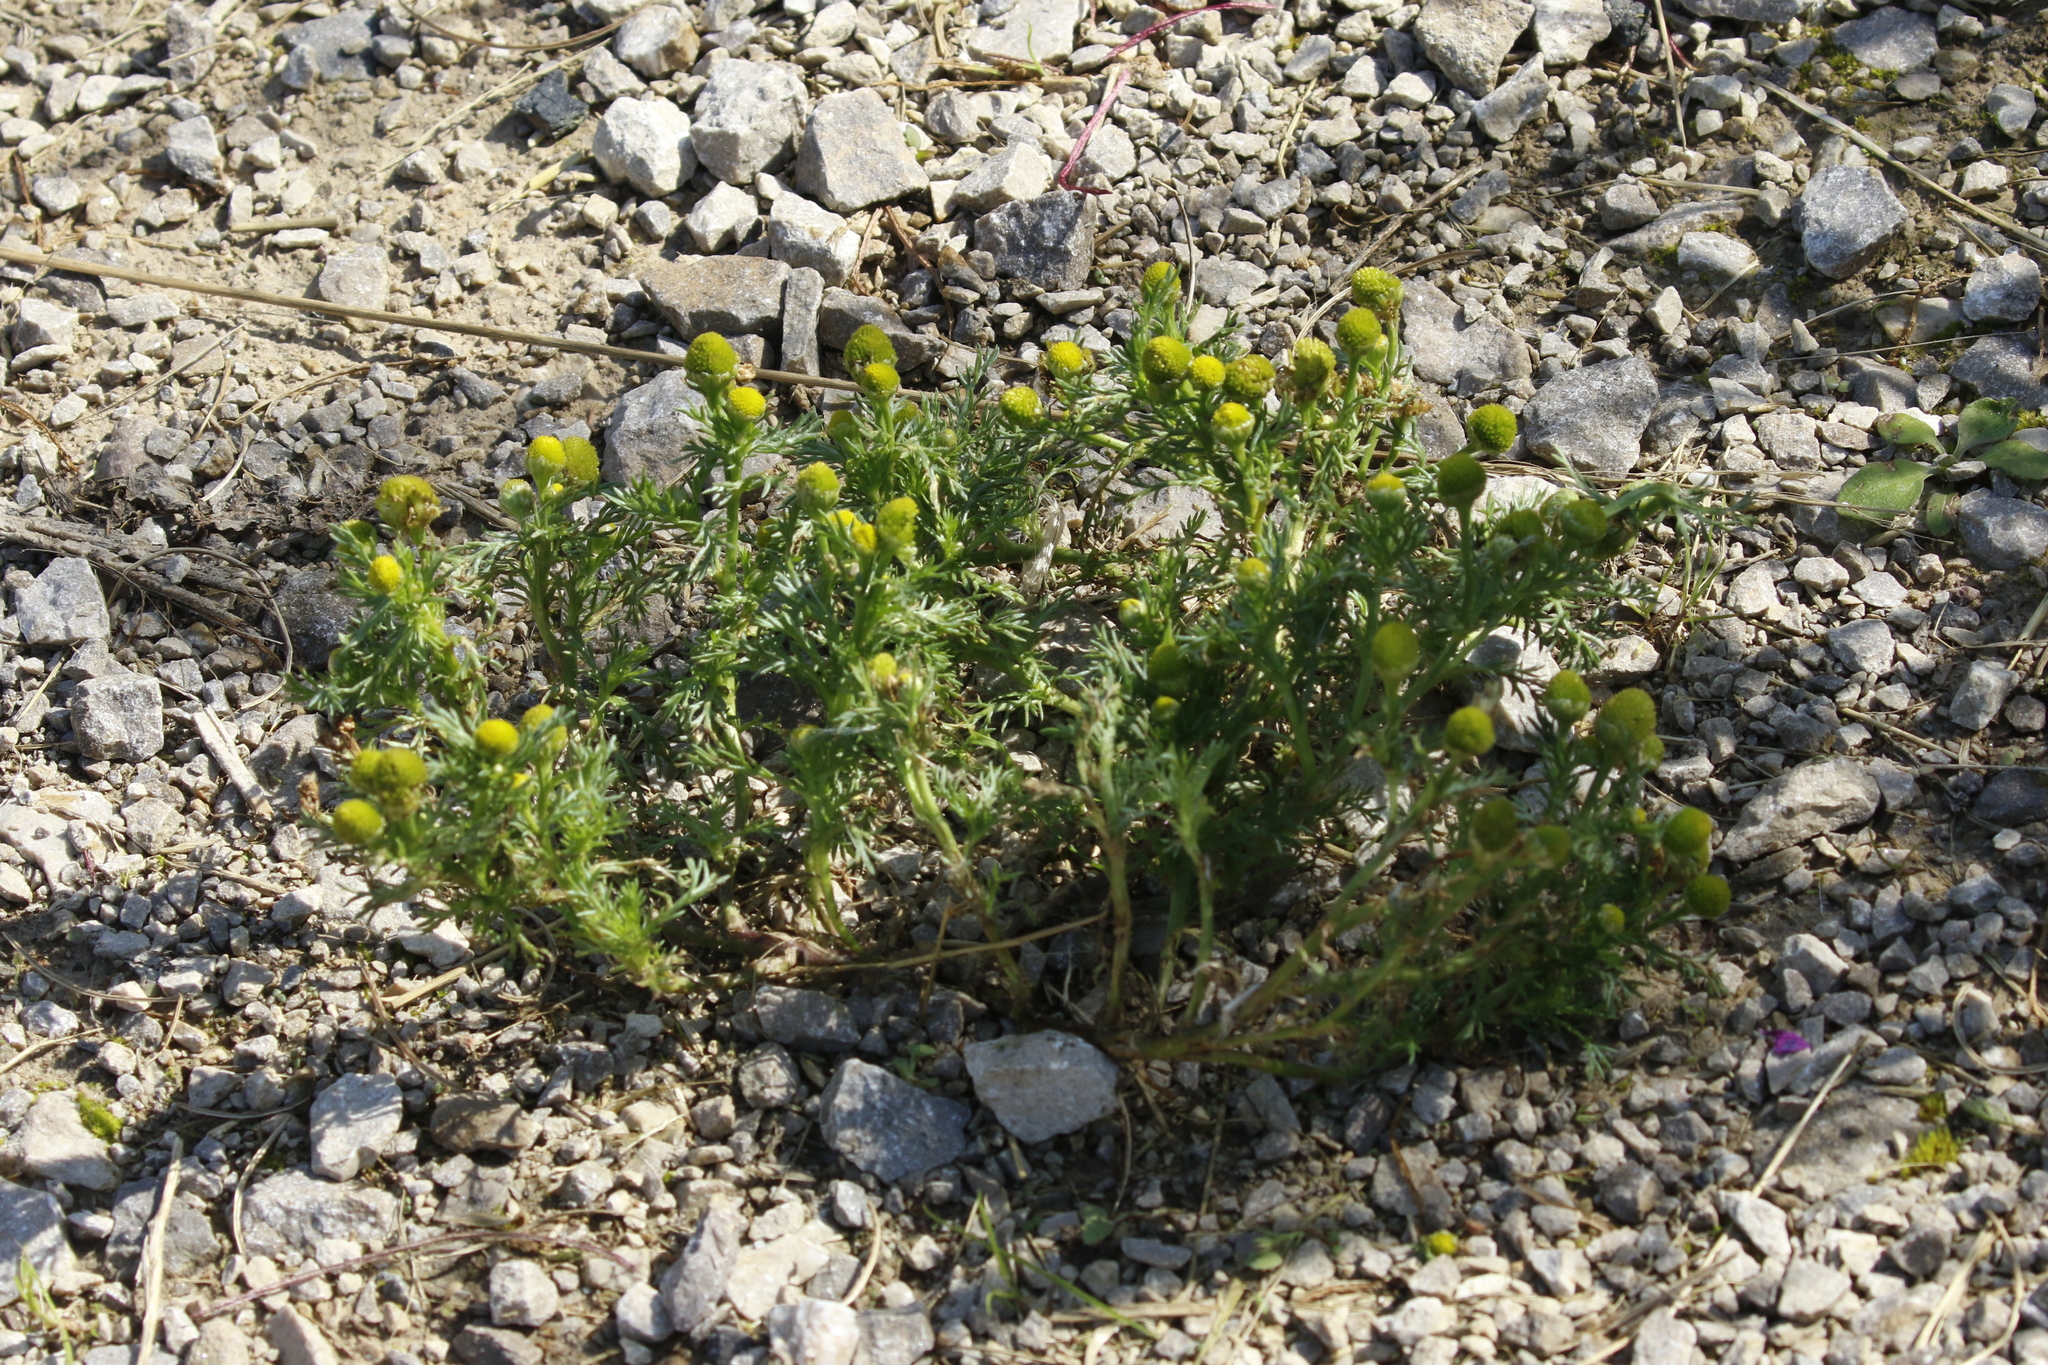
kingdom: Plantae
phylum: Tracheophyta
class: Magnoliopsida
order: Asterales
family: Asteraceae
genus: Matricaria
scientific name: Matricaria discoidea
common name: Disc mayweed
